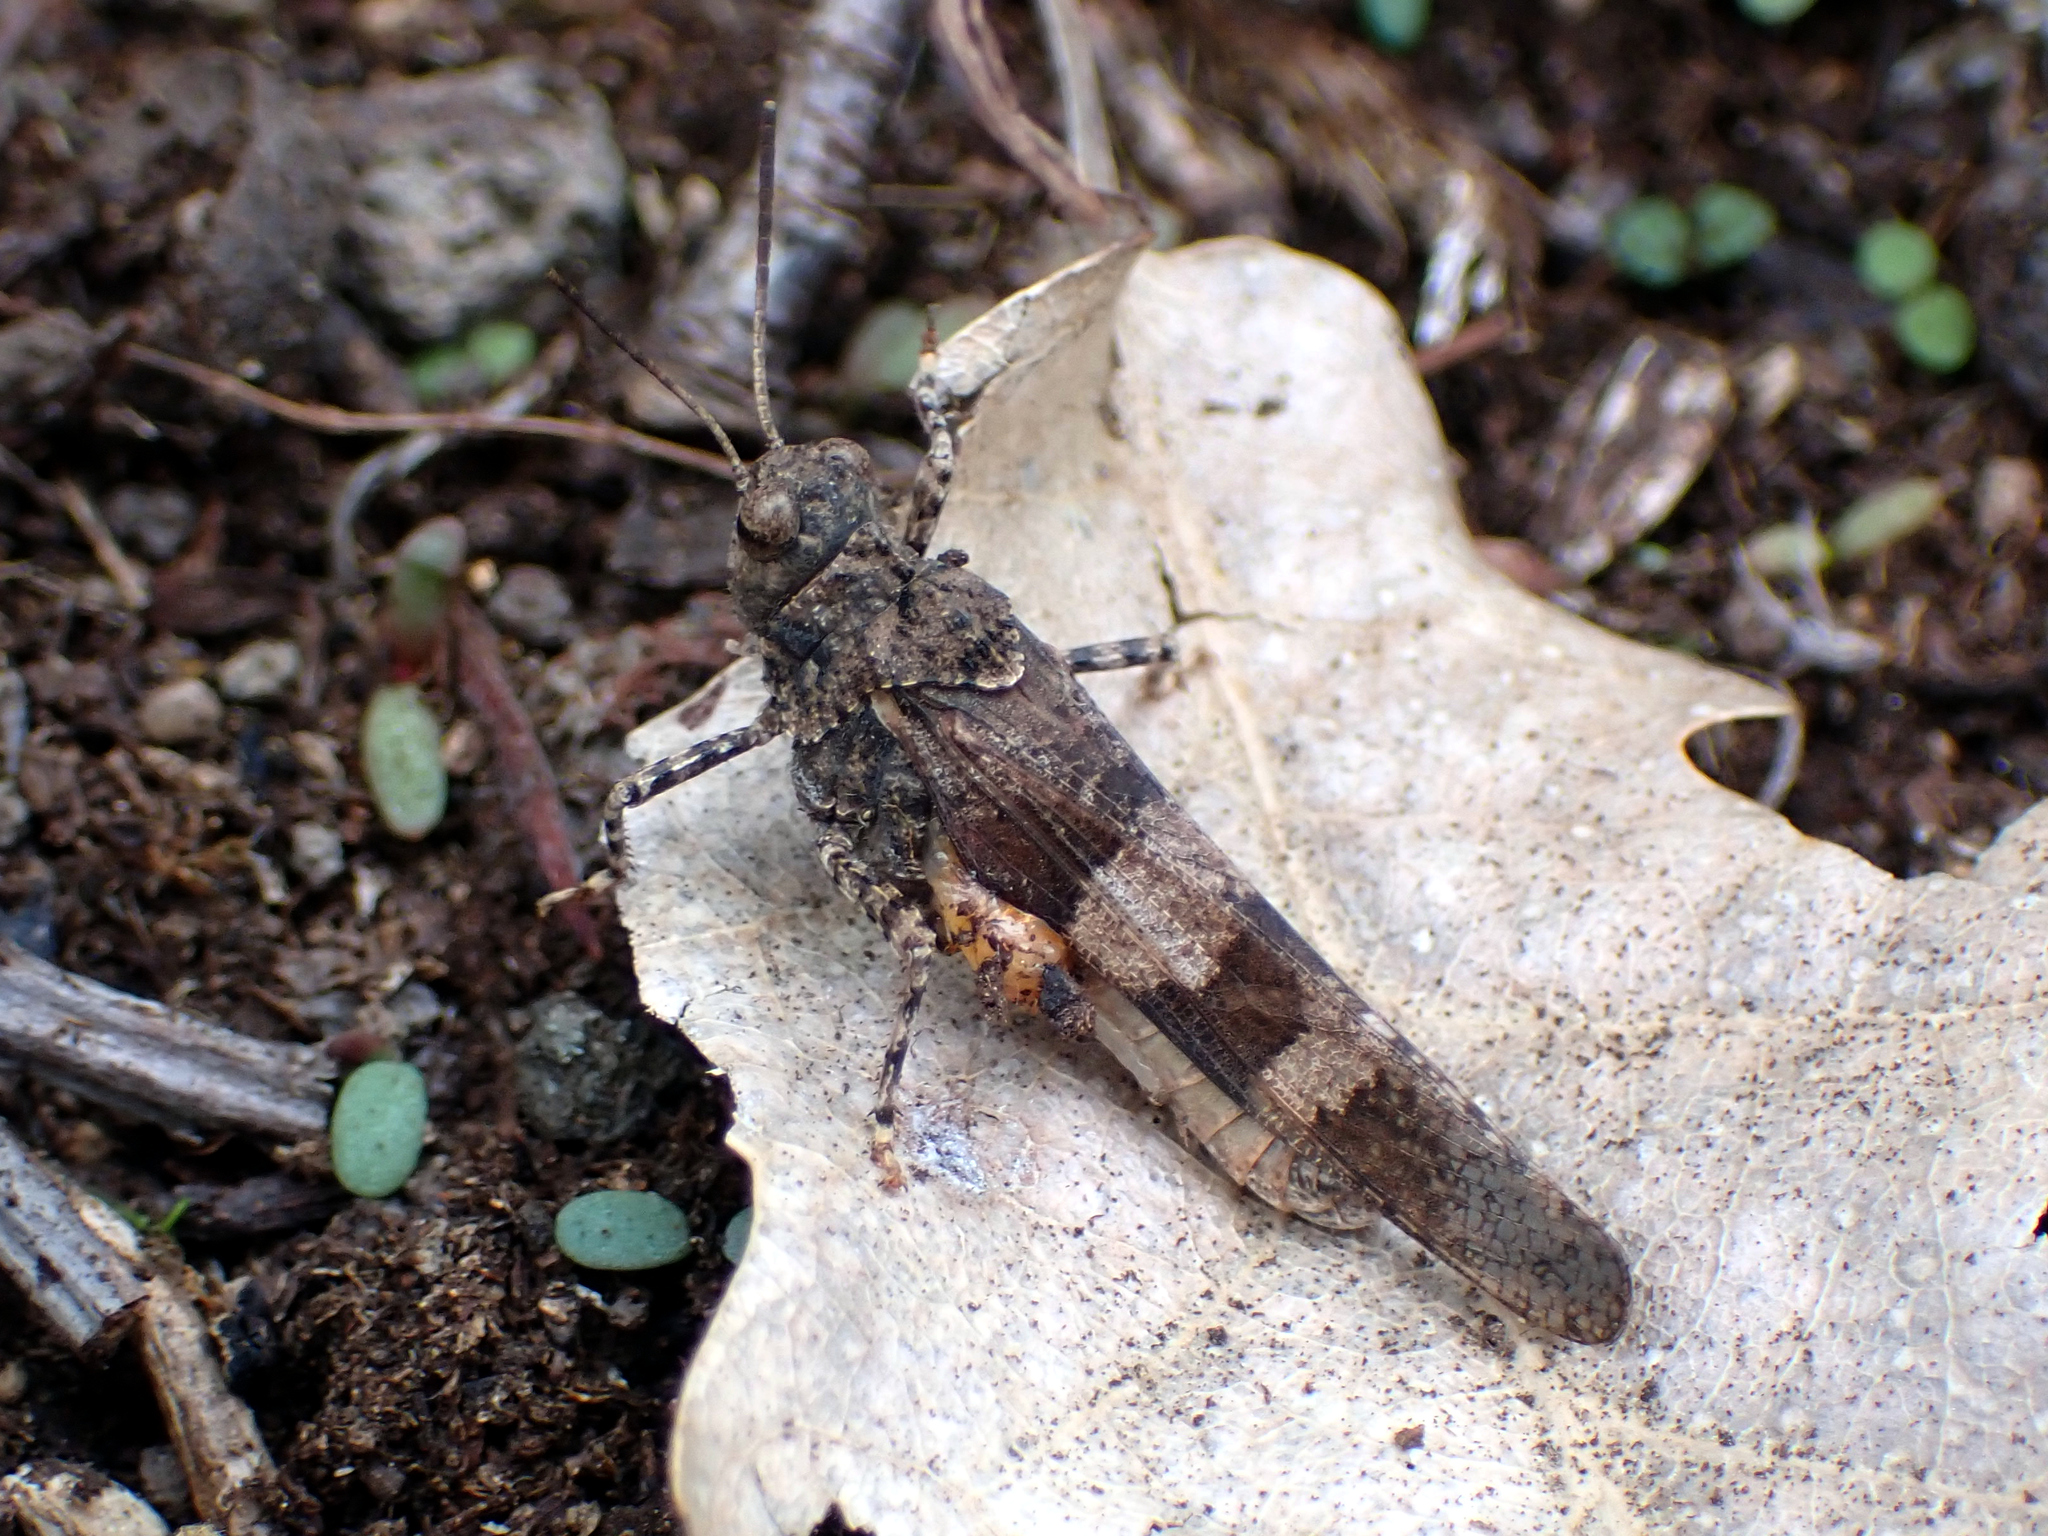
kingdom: Animalia
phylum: Arthropoda
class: Insecta
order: Orthoptera
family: Acrididae
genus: Oedipoda
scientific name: Oedipoda caerulescens
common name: Blue-winged grasshopper
